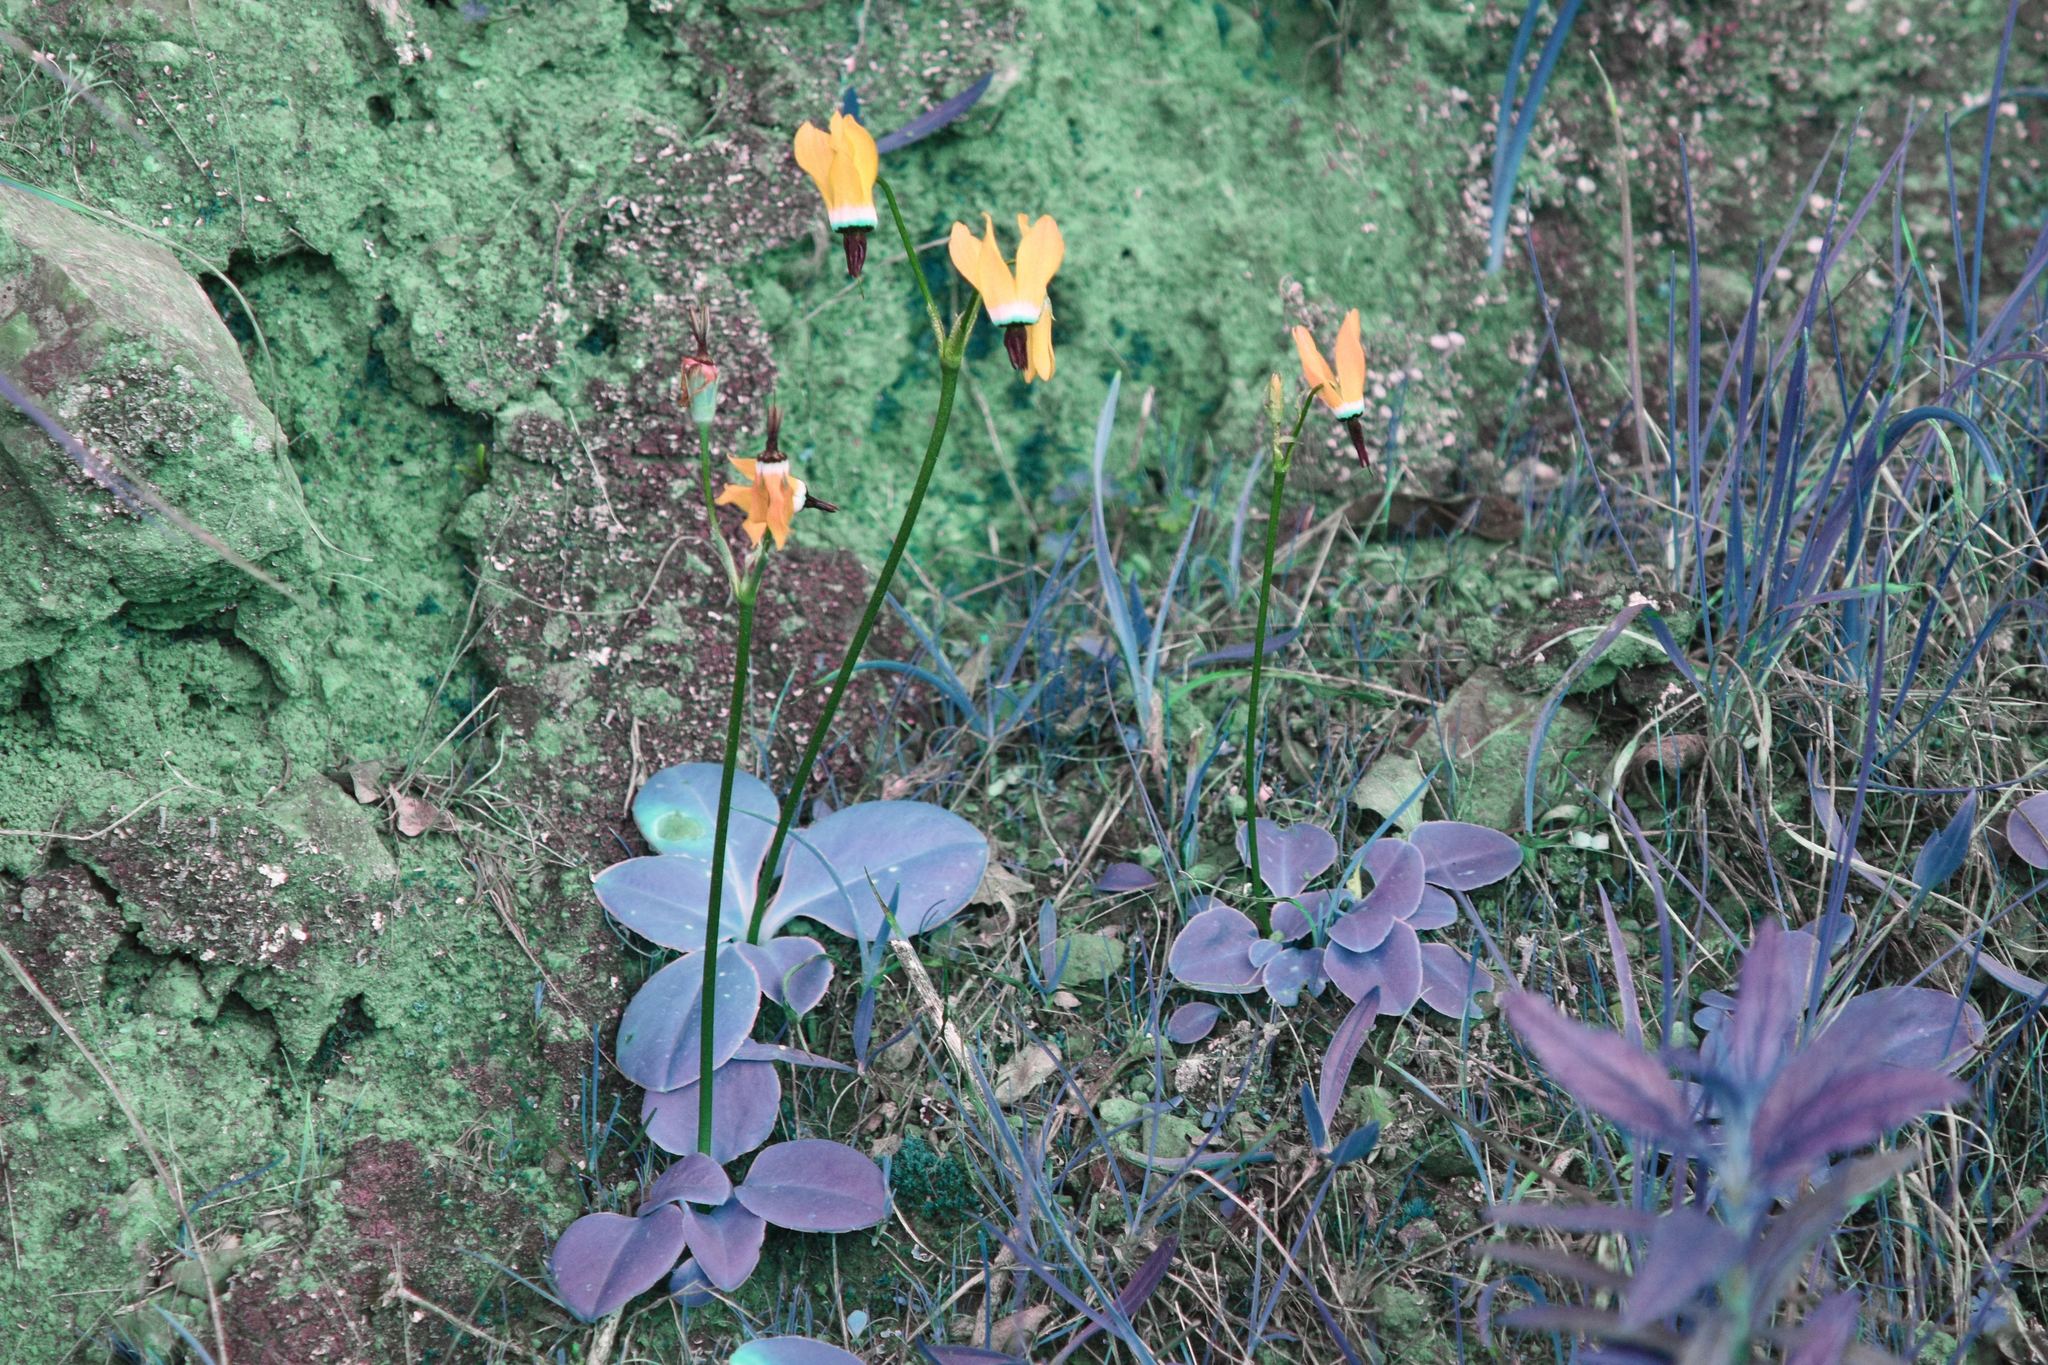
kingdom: Plantae
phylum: Tracheophyta
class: Magnoliopsida
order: Ericales
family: Primulaceae
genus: Dodecatheon
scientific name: Dodecatheon hendersonii
